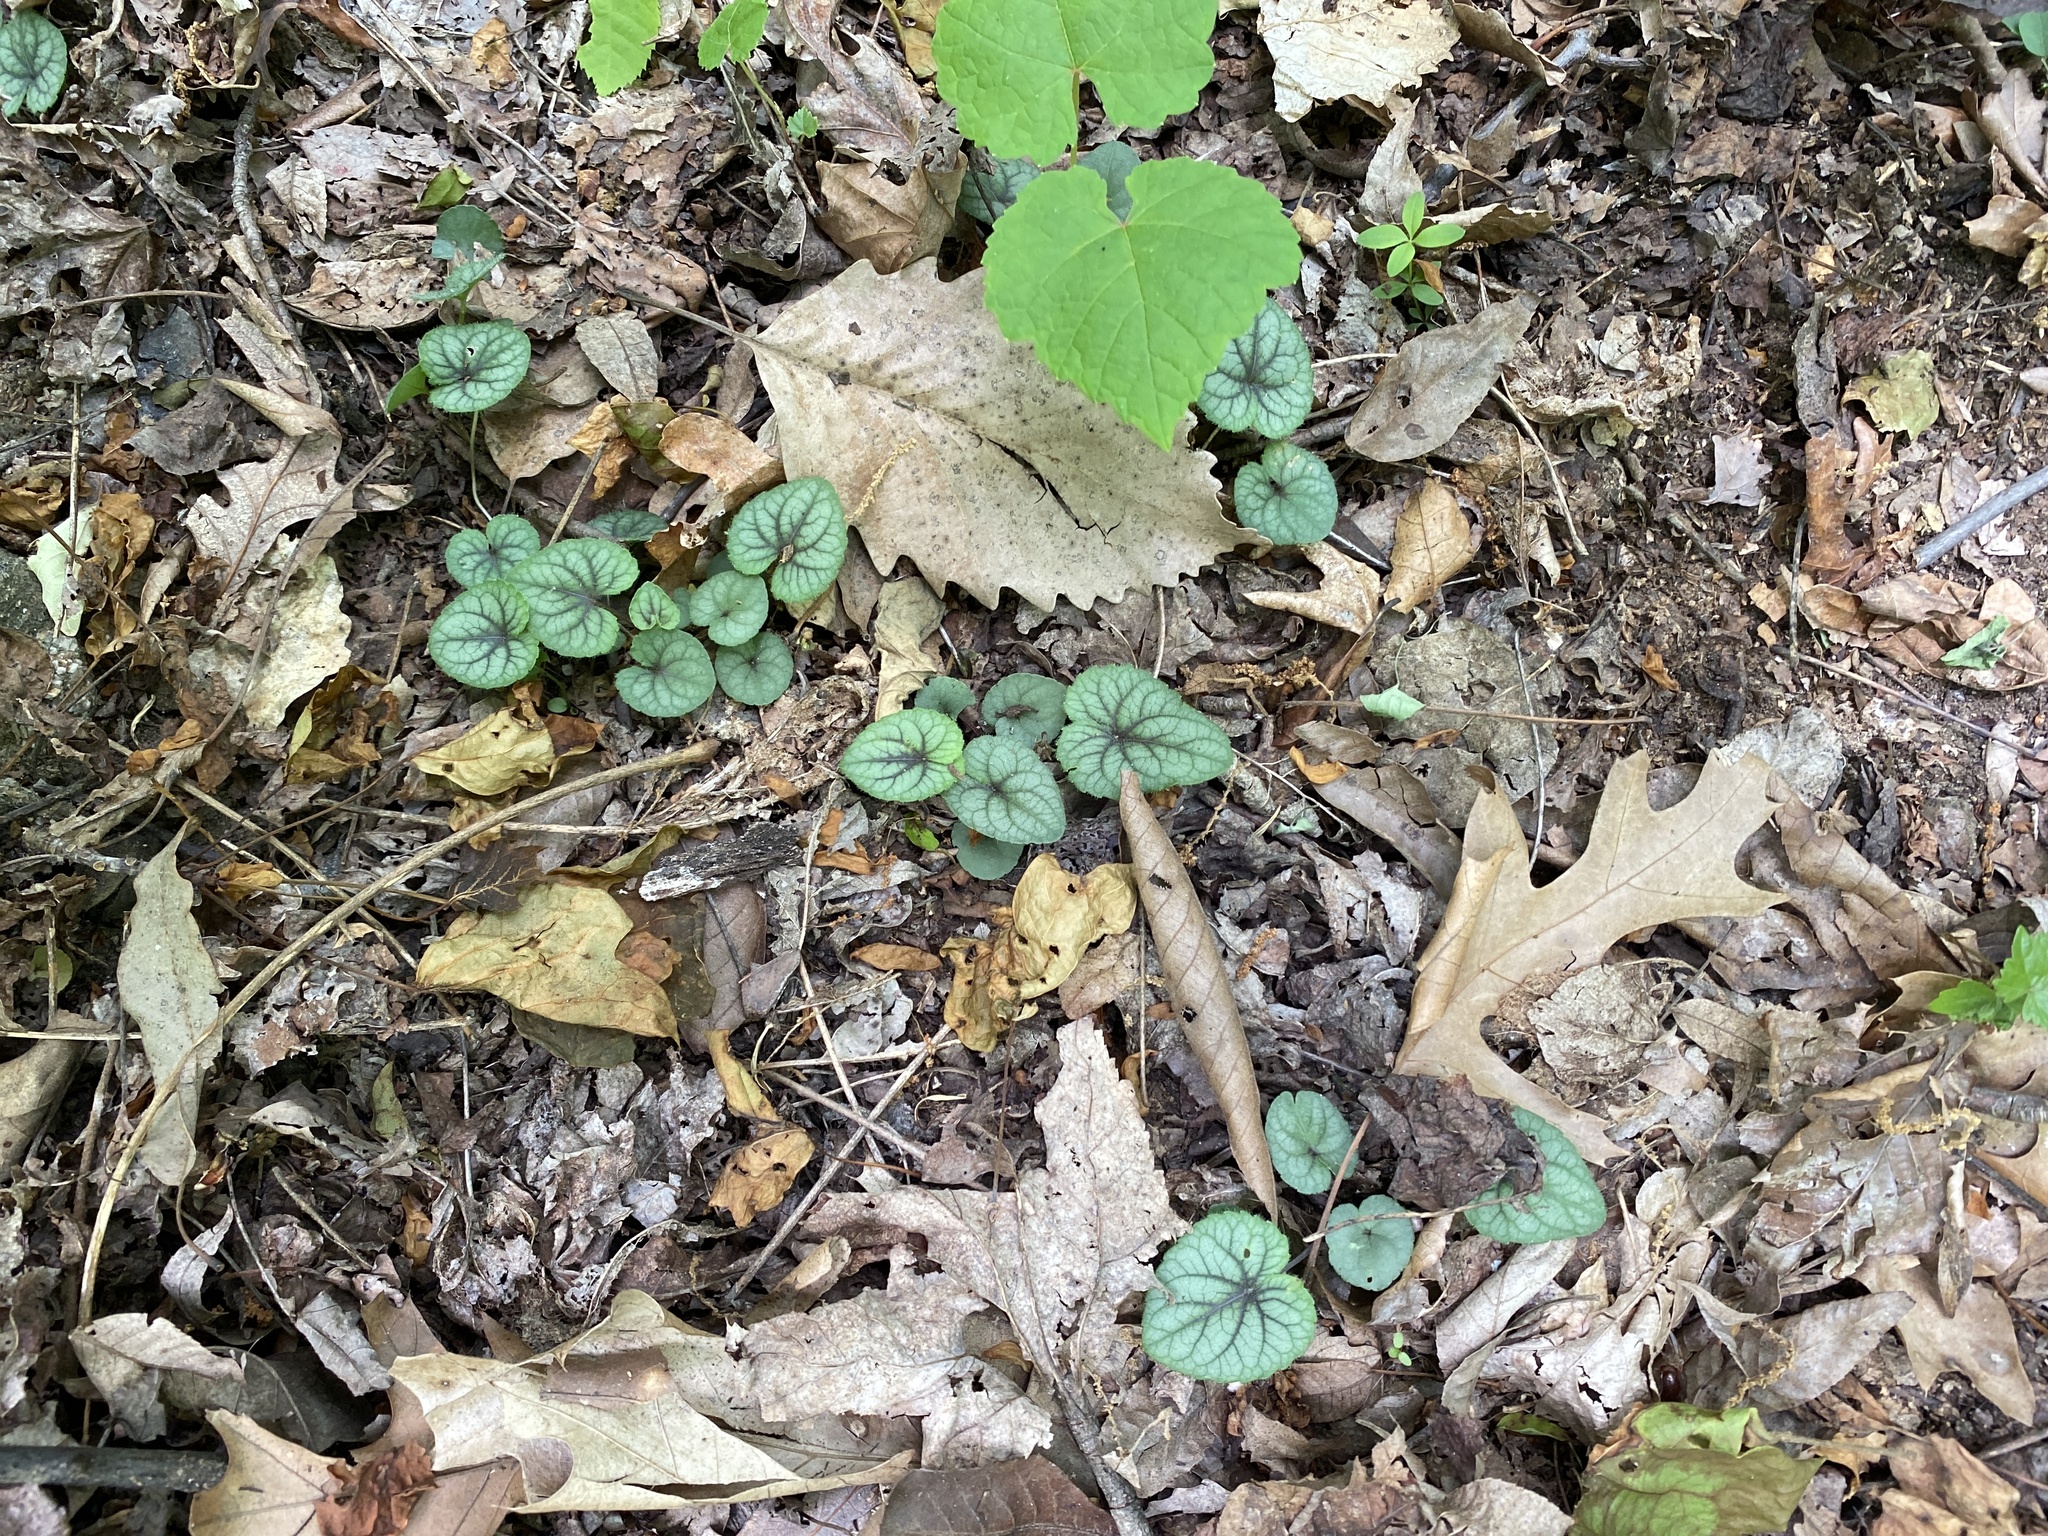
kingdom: Plantae
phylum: Tracheophyta
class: Magnoliopsida
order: Malpighiales
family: Violaceae
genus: Viola
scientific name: Viola hirsutula
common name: Southern wood violet
